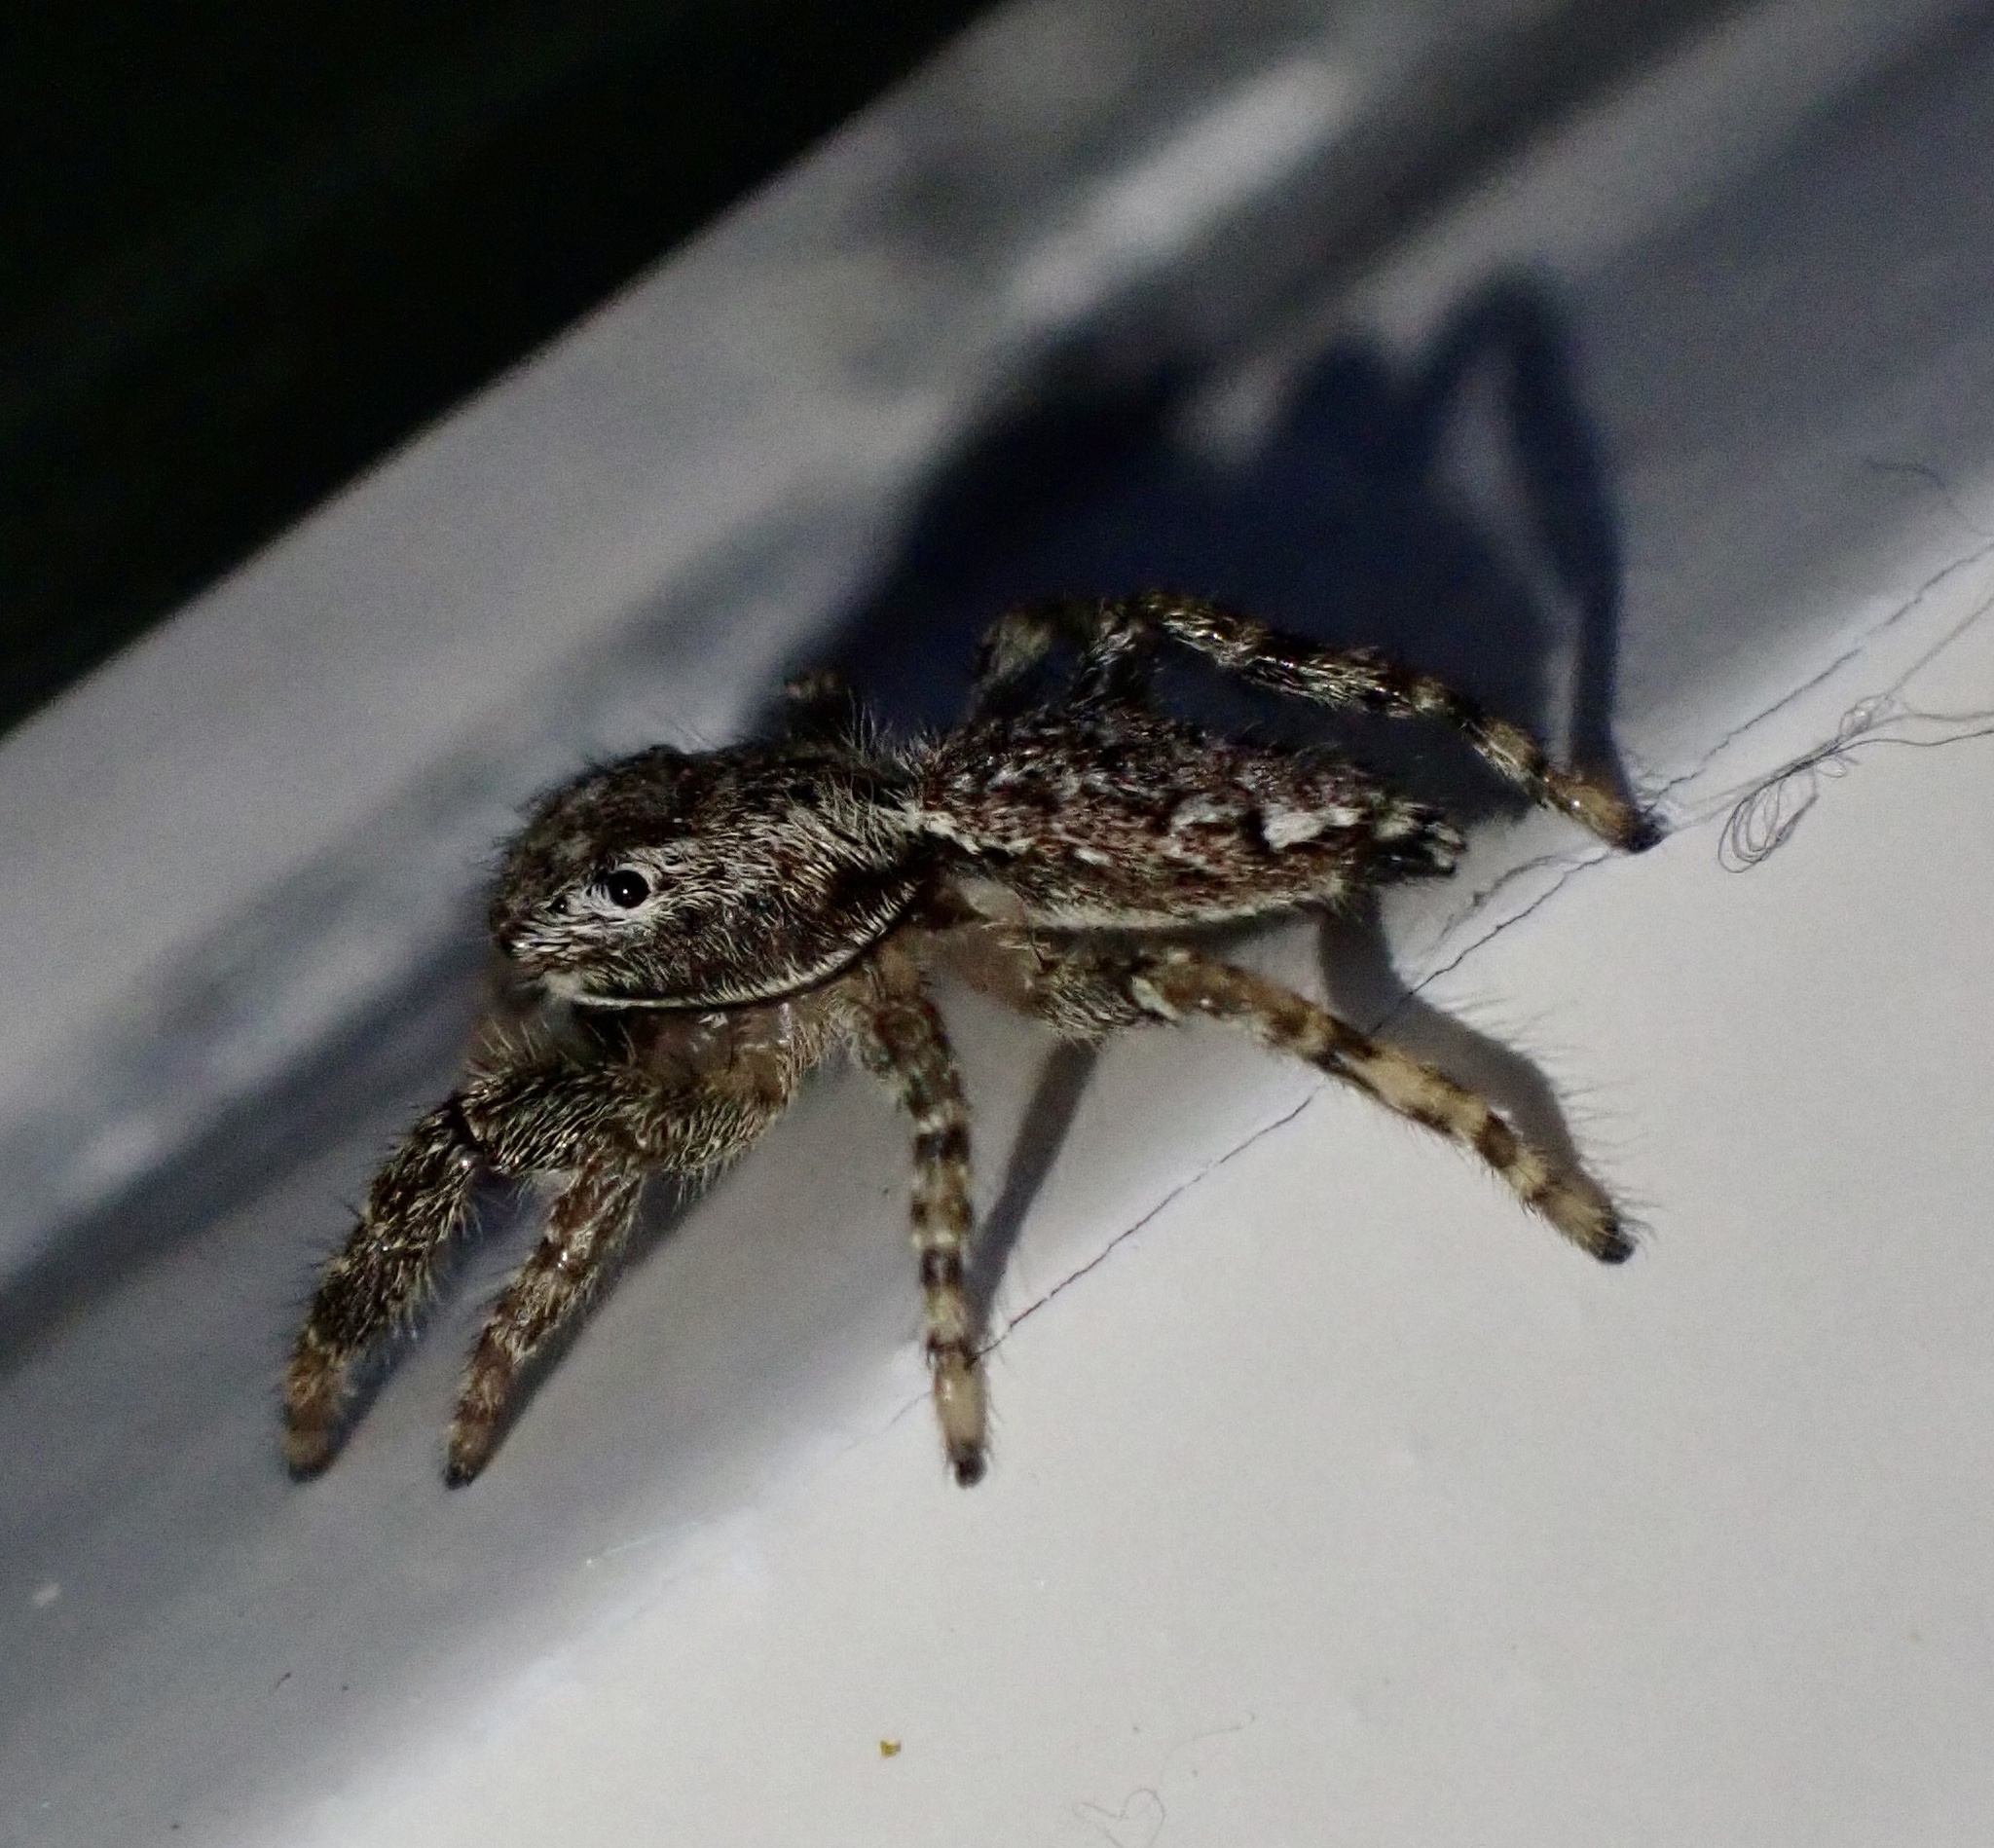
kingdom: Animalia
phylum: Arthropoda
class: Arachnida
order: Araneae
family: Salticidae
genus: Marpissa
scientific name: Marpissa muscosa
